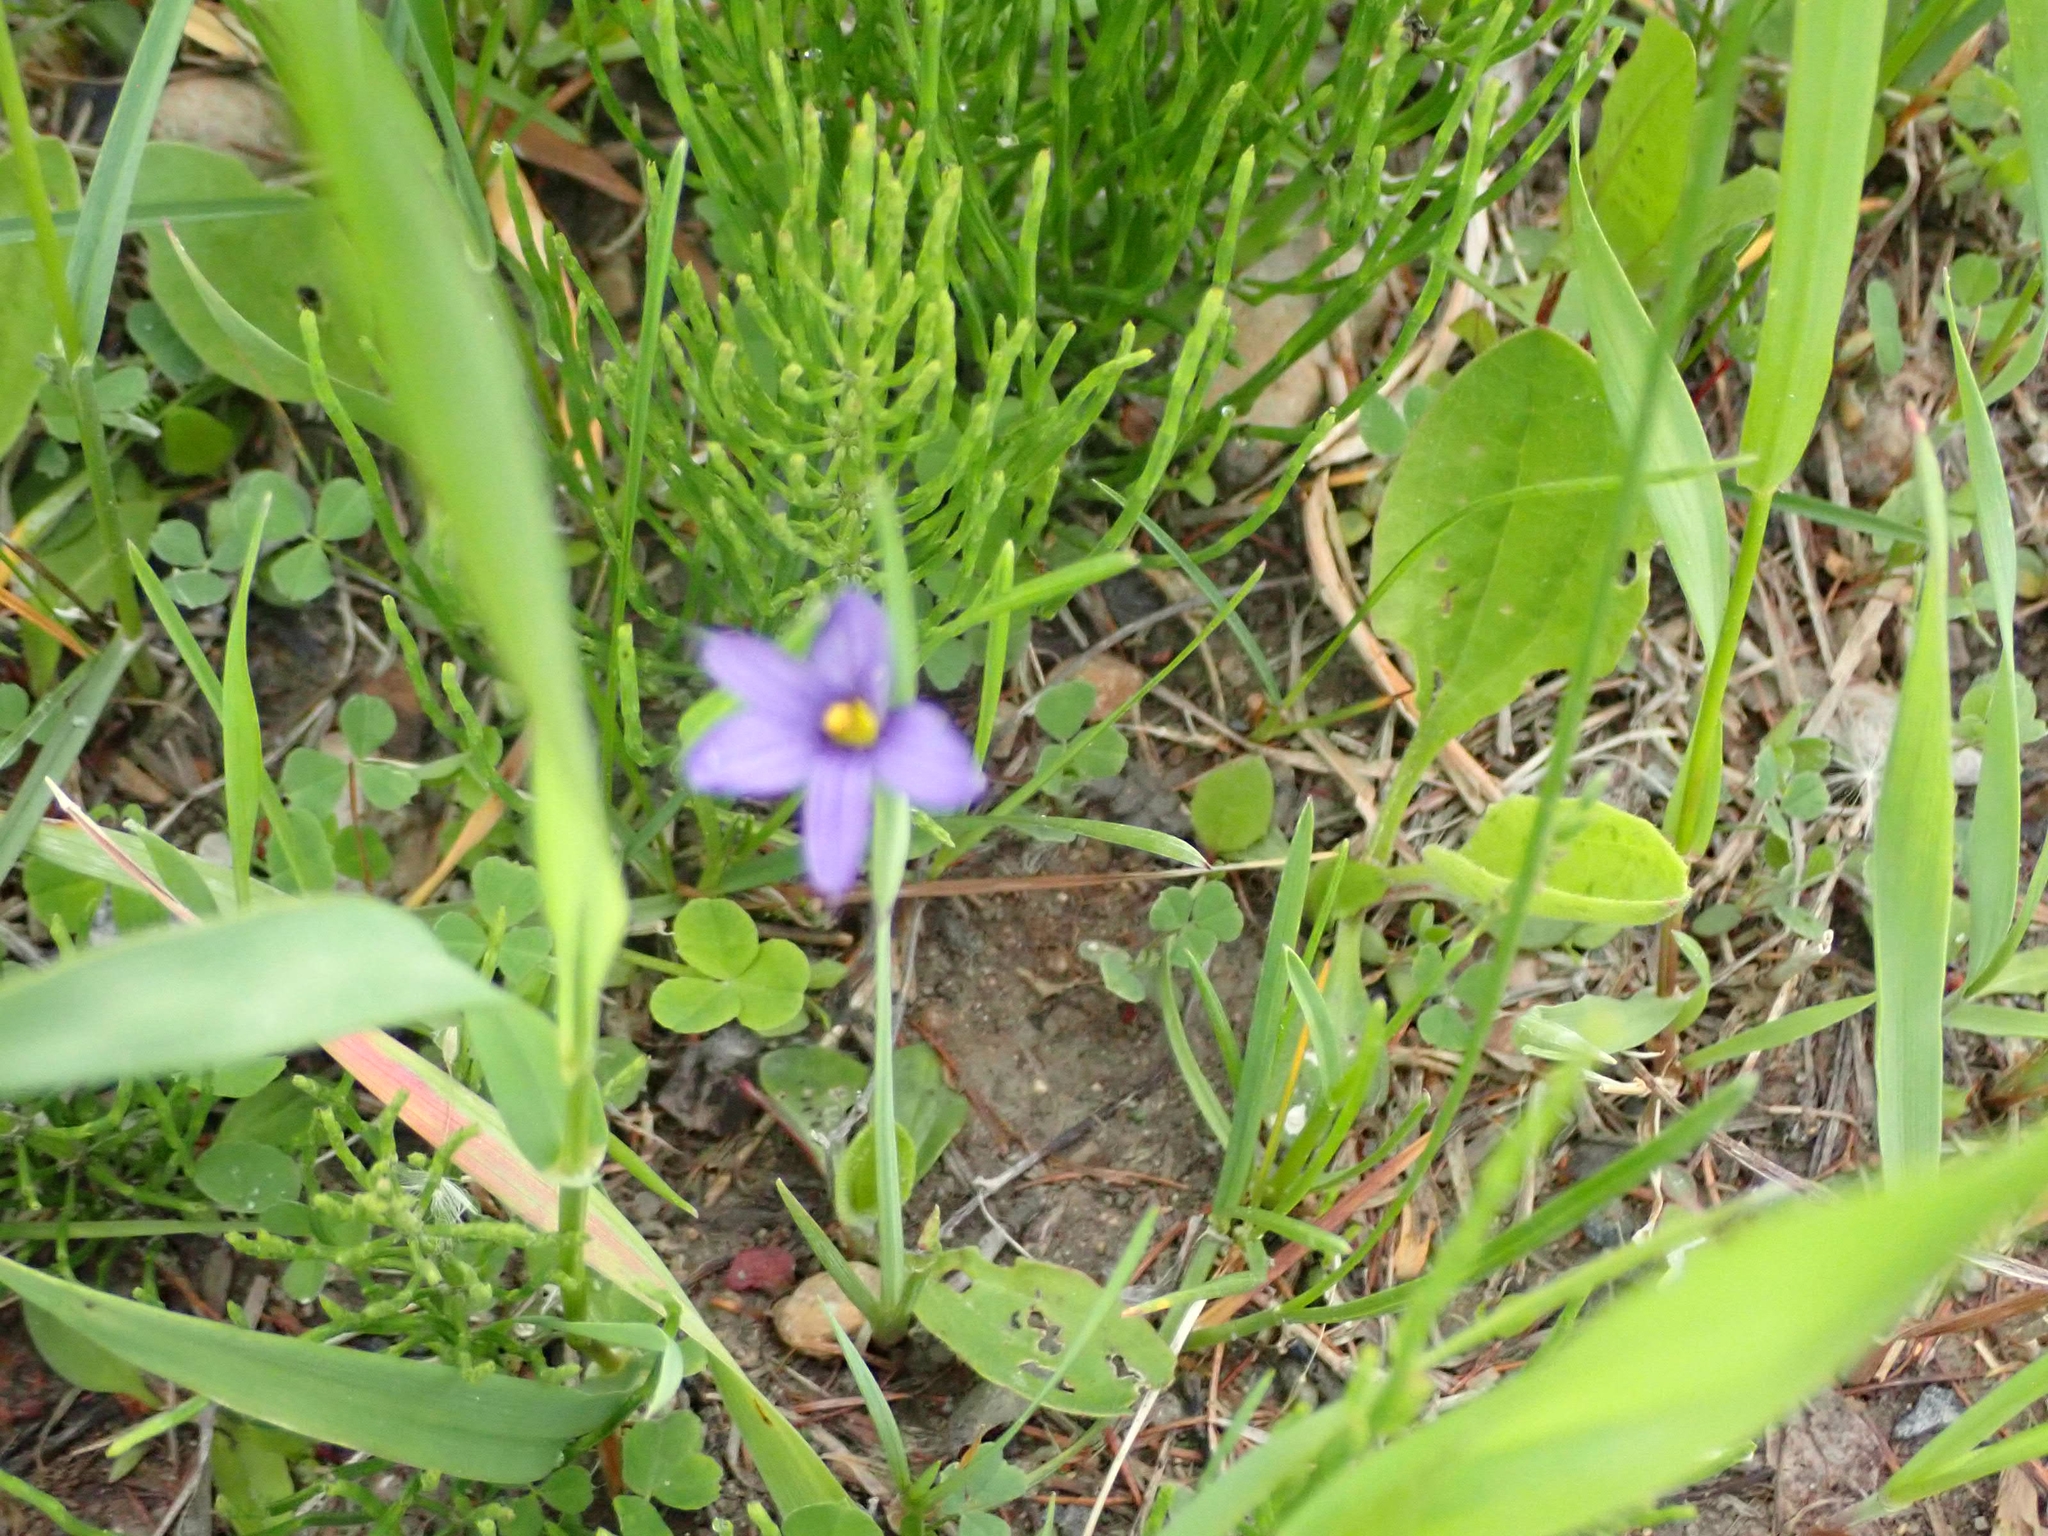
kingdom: Plantae
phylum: Tracheophyta
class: Liliopsida
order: Asparagales
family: Iridaceae
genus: Sisyrinchium
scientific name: Sisyrinchium montanum
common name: American blue-eyed-grass
